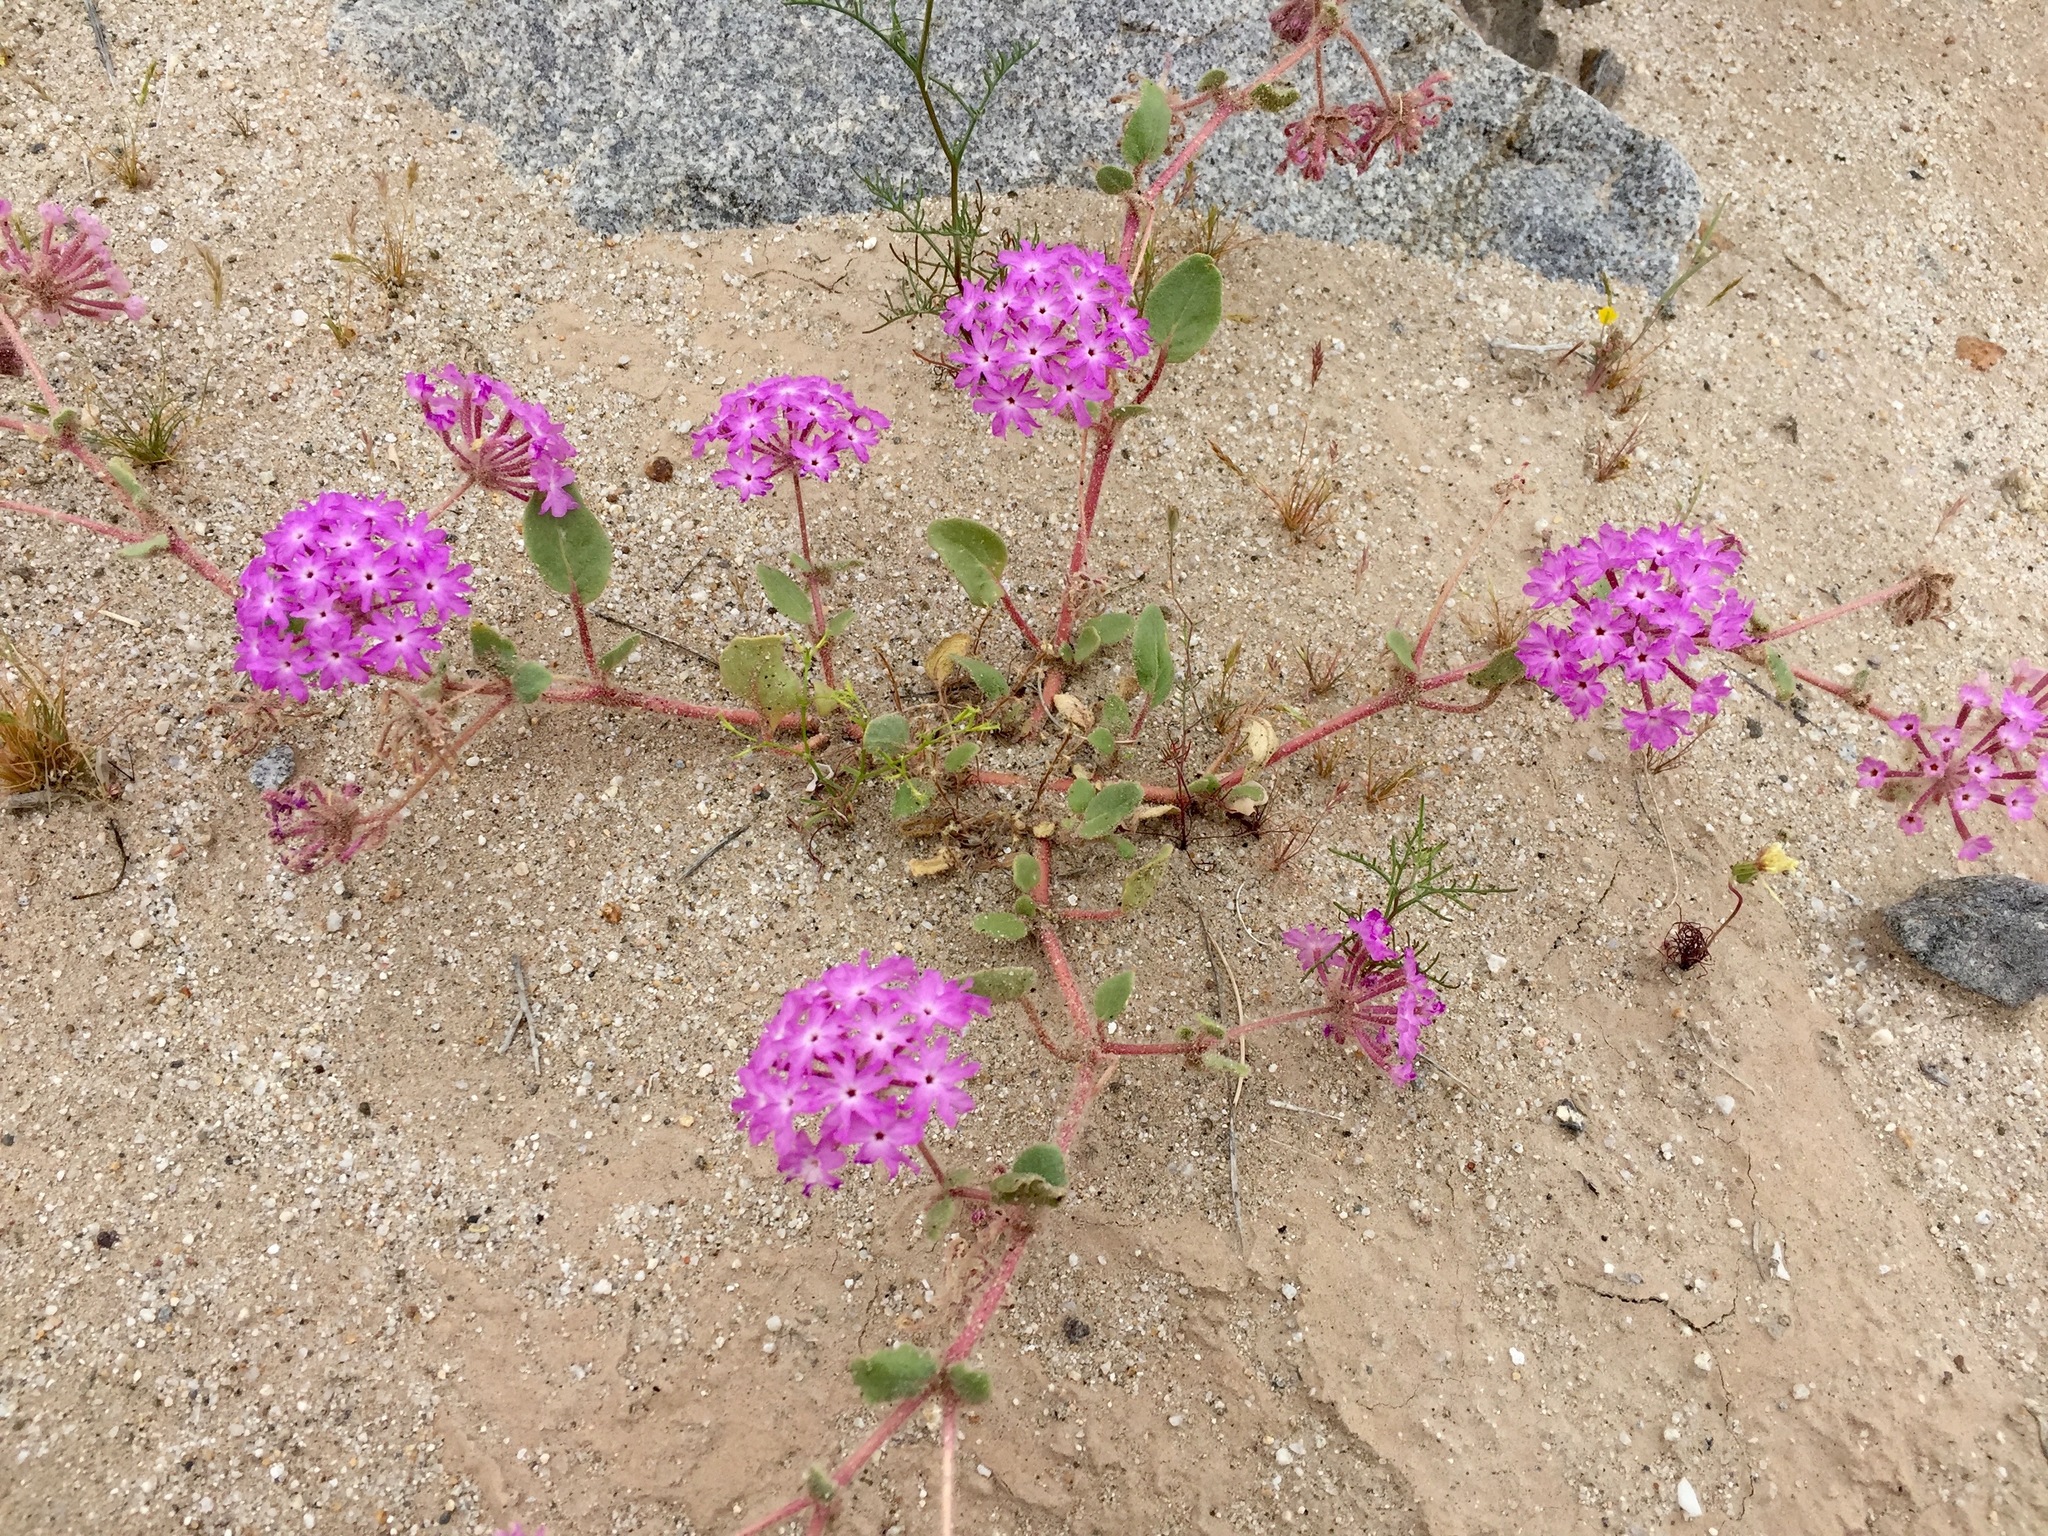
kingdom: Plantae
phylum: Tracheophyta
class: Magnoliopsida
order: Caryophyllales
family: Nyctaginaceae
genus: Abronia
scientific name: Abronia villosa
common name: Desert sand-verbena
